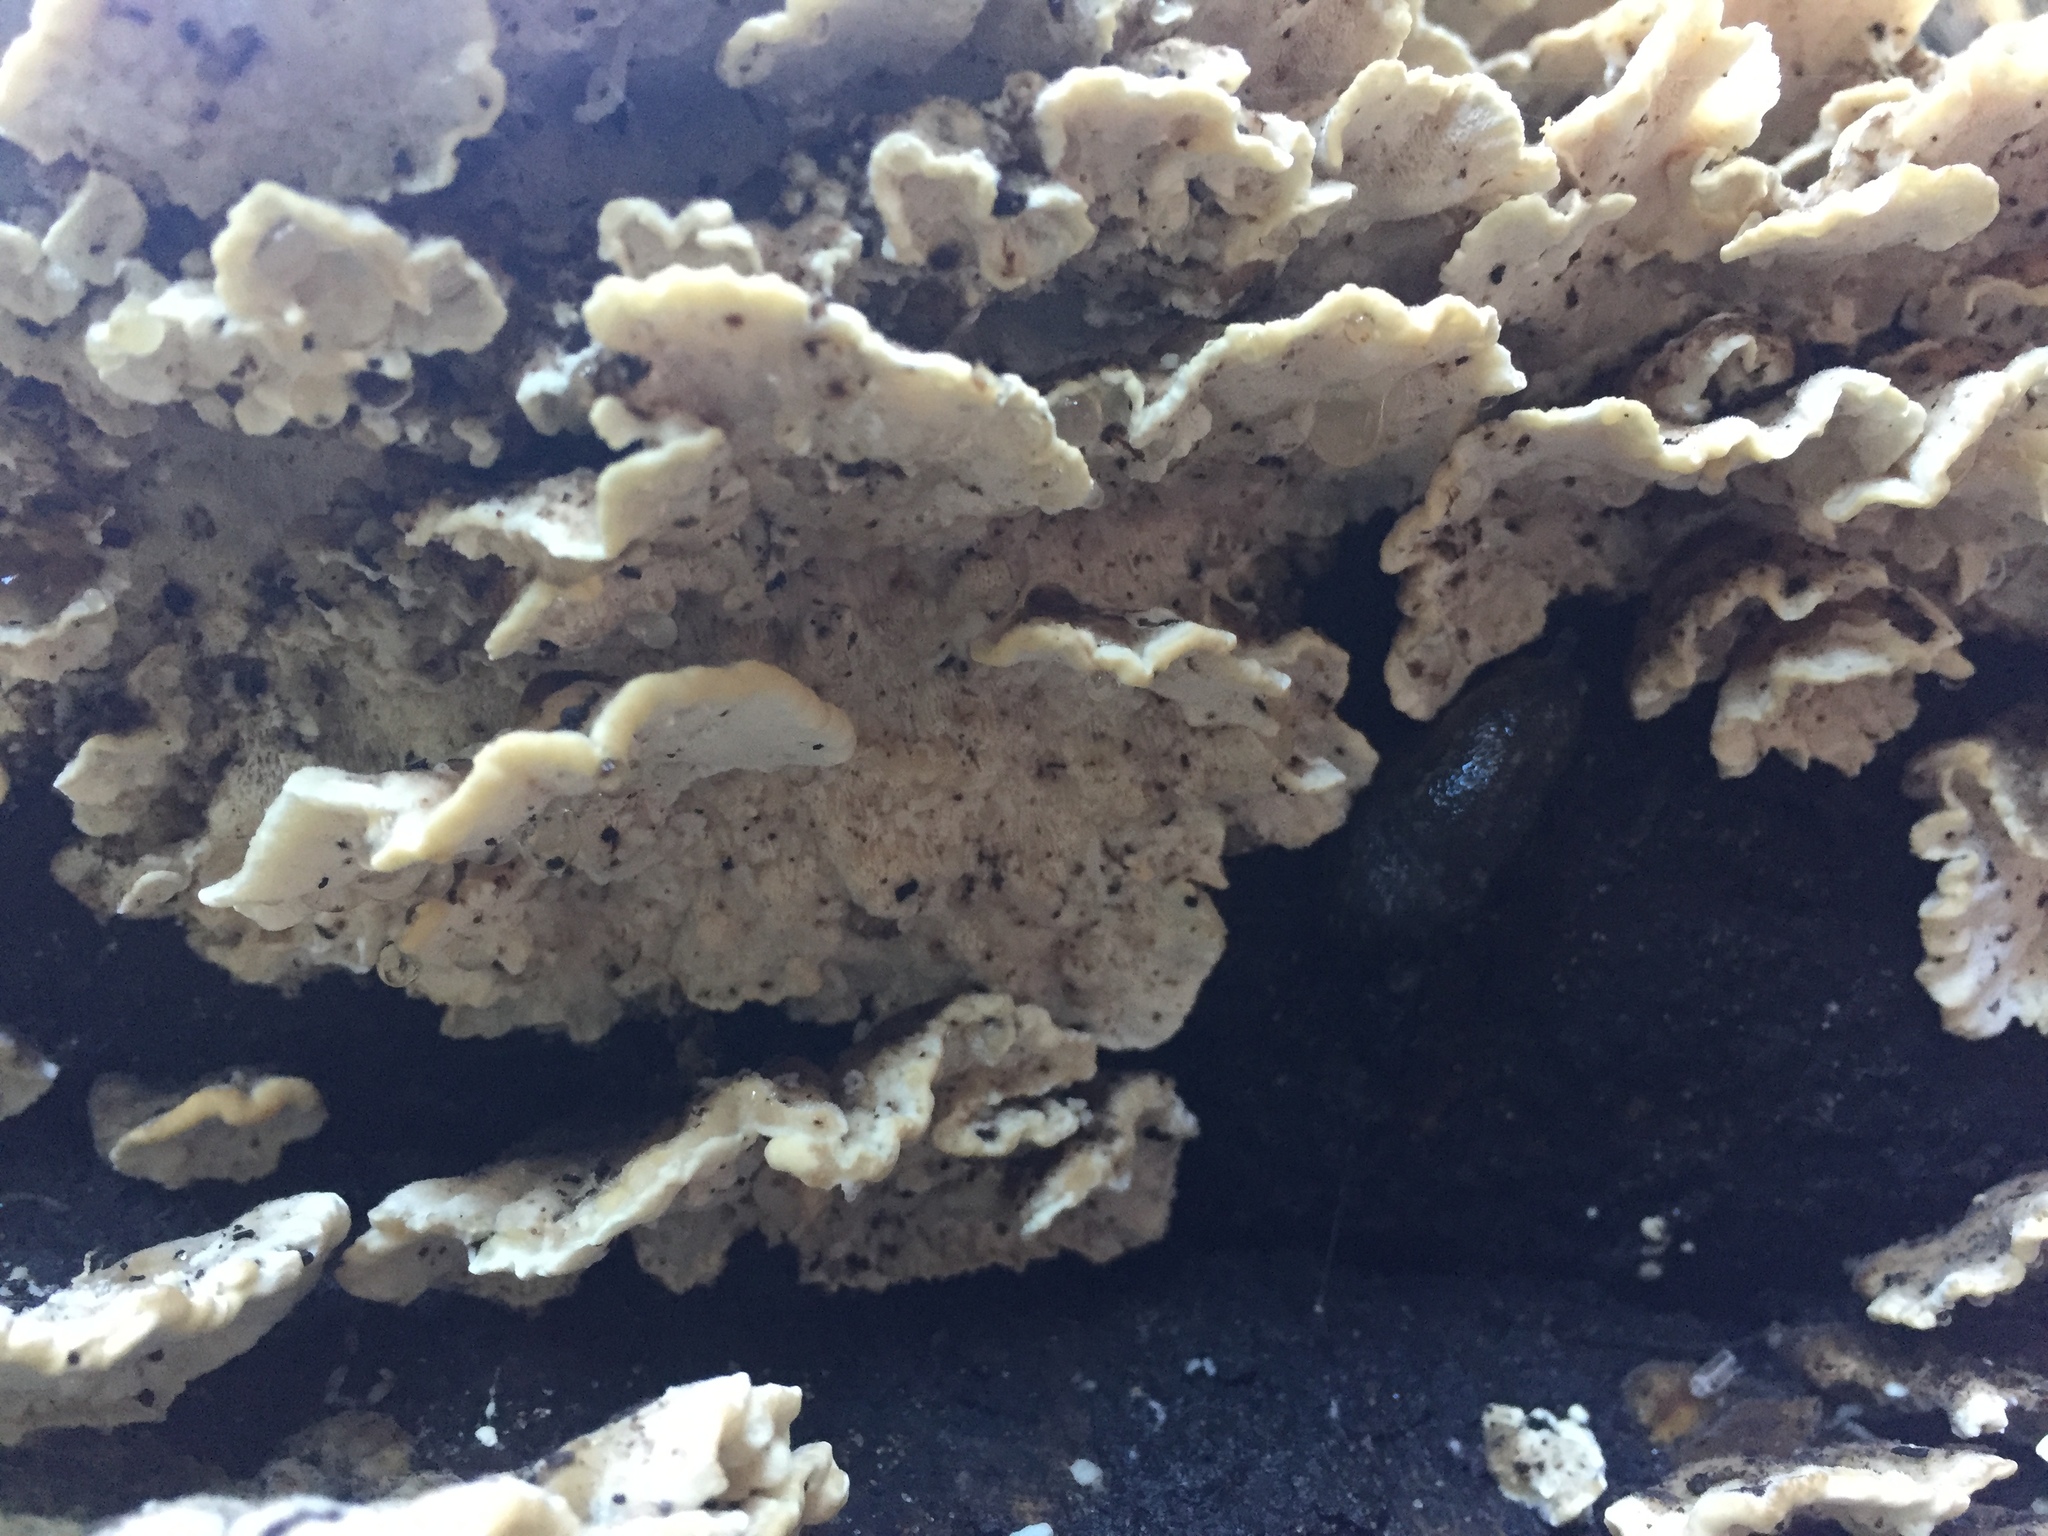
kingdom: Fungi
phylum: Basidiomycota
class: Agaricomycetes
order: Polyporales
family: Polyporaceae
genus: Trametes
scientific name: Trametes versicolor
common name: Turkeytail
